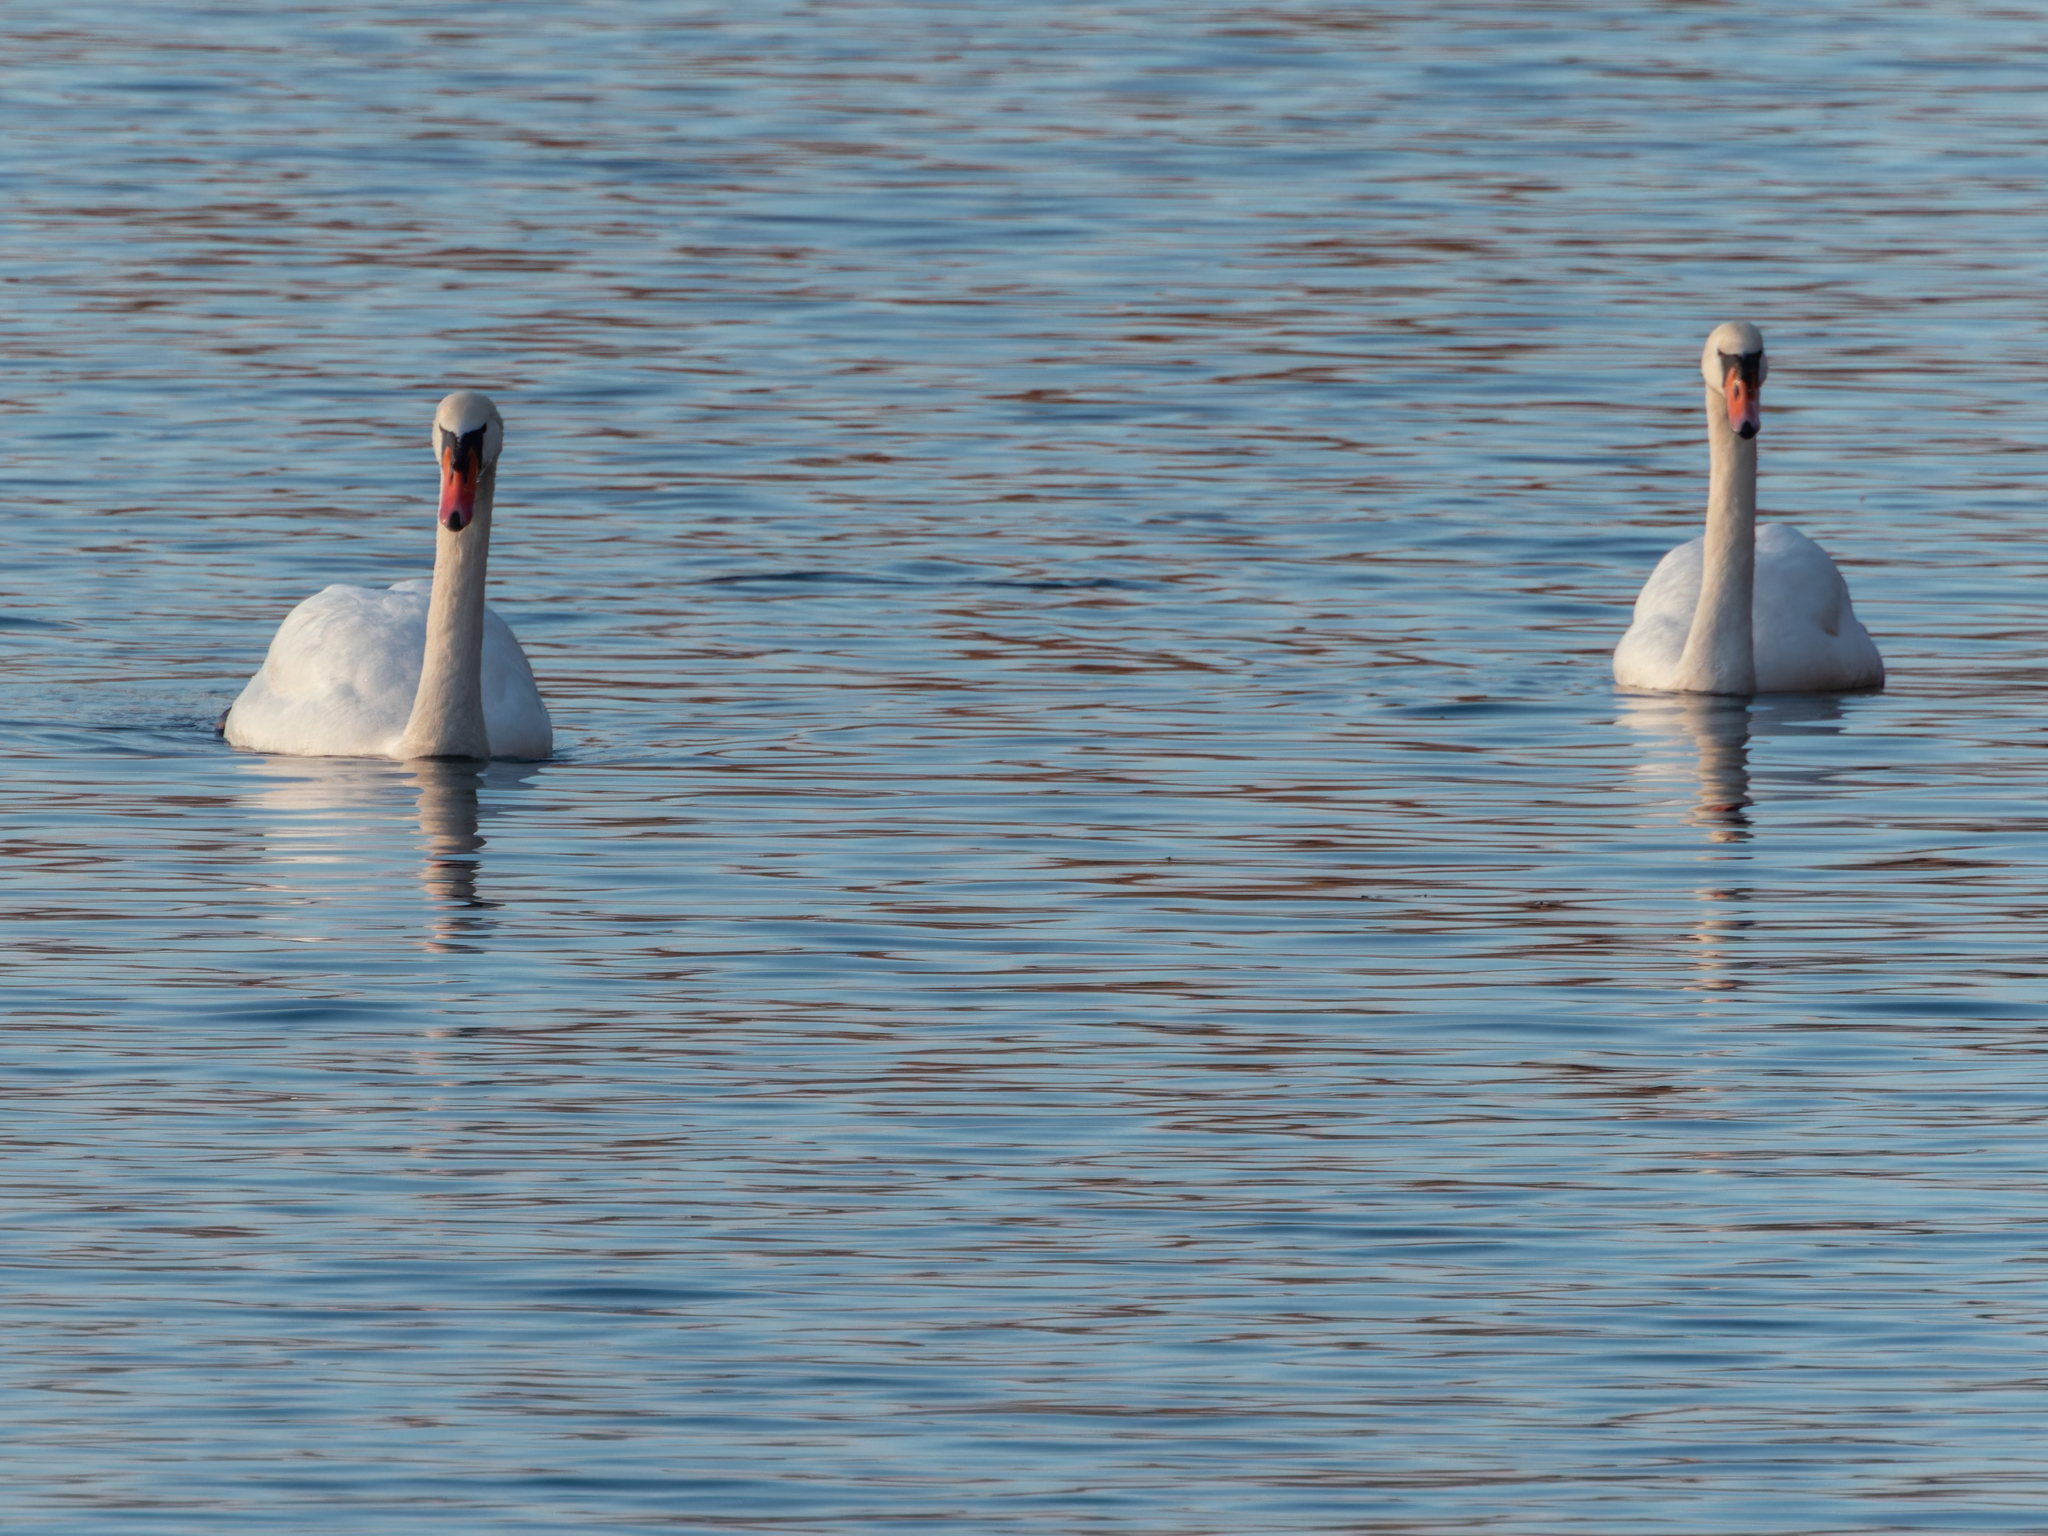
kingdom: Animalia
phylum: Chordata
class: Aves
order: Anseriformes
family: Anatidae
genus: Cygnus
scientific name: Cygnus olor
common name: Mute swan
